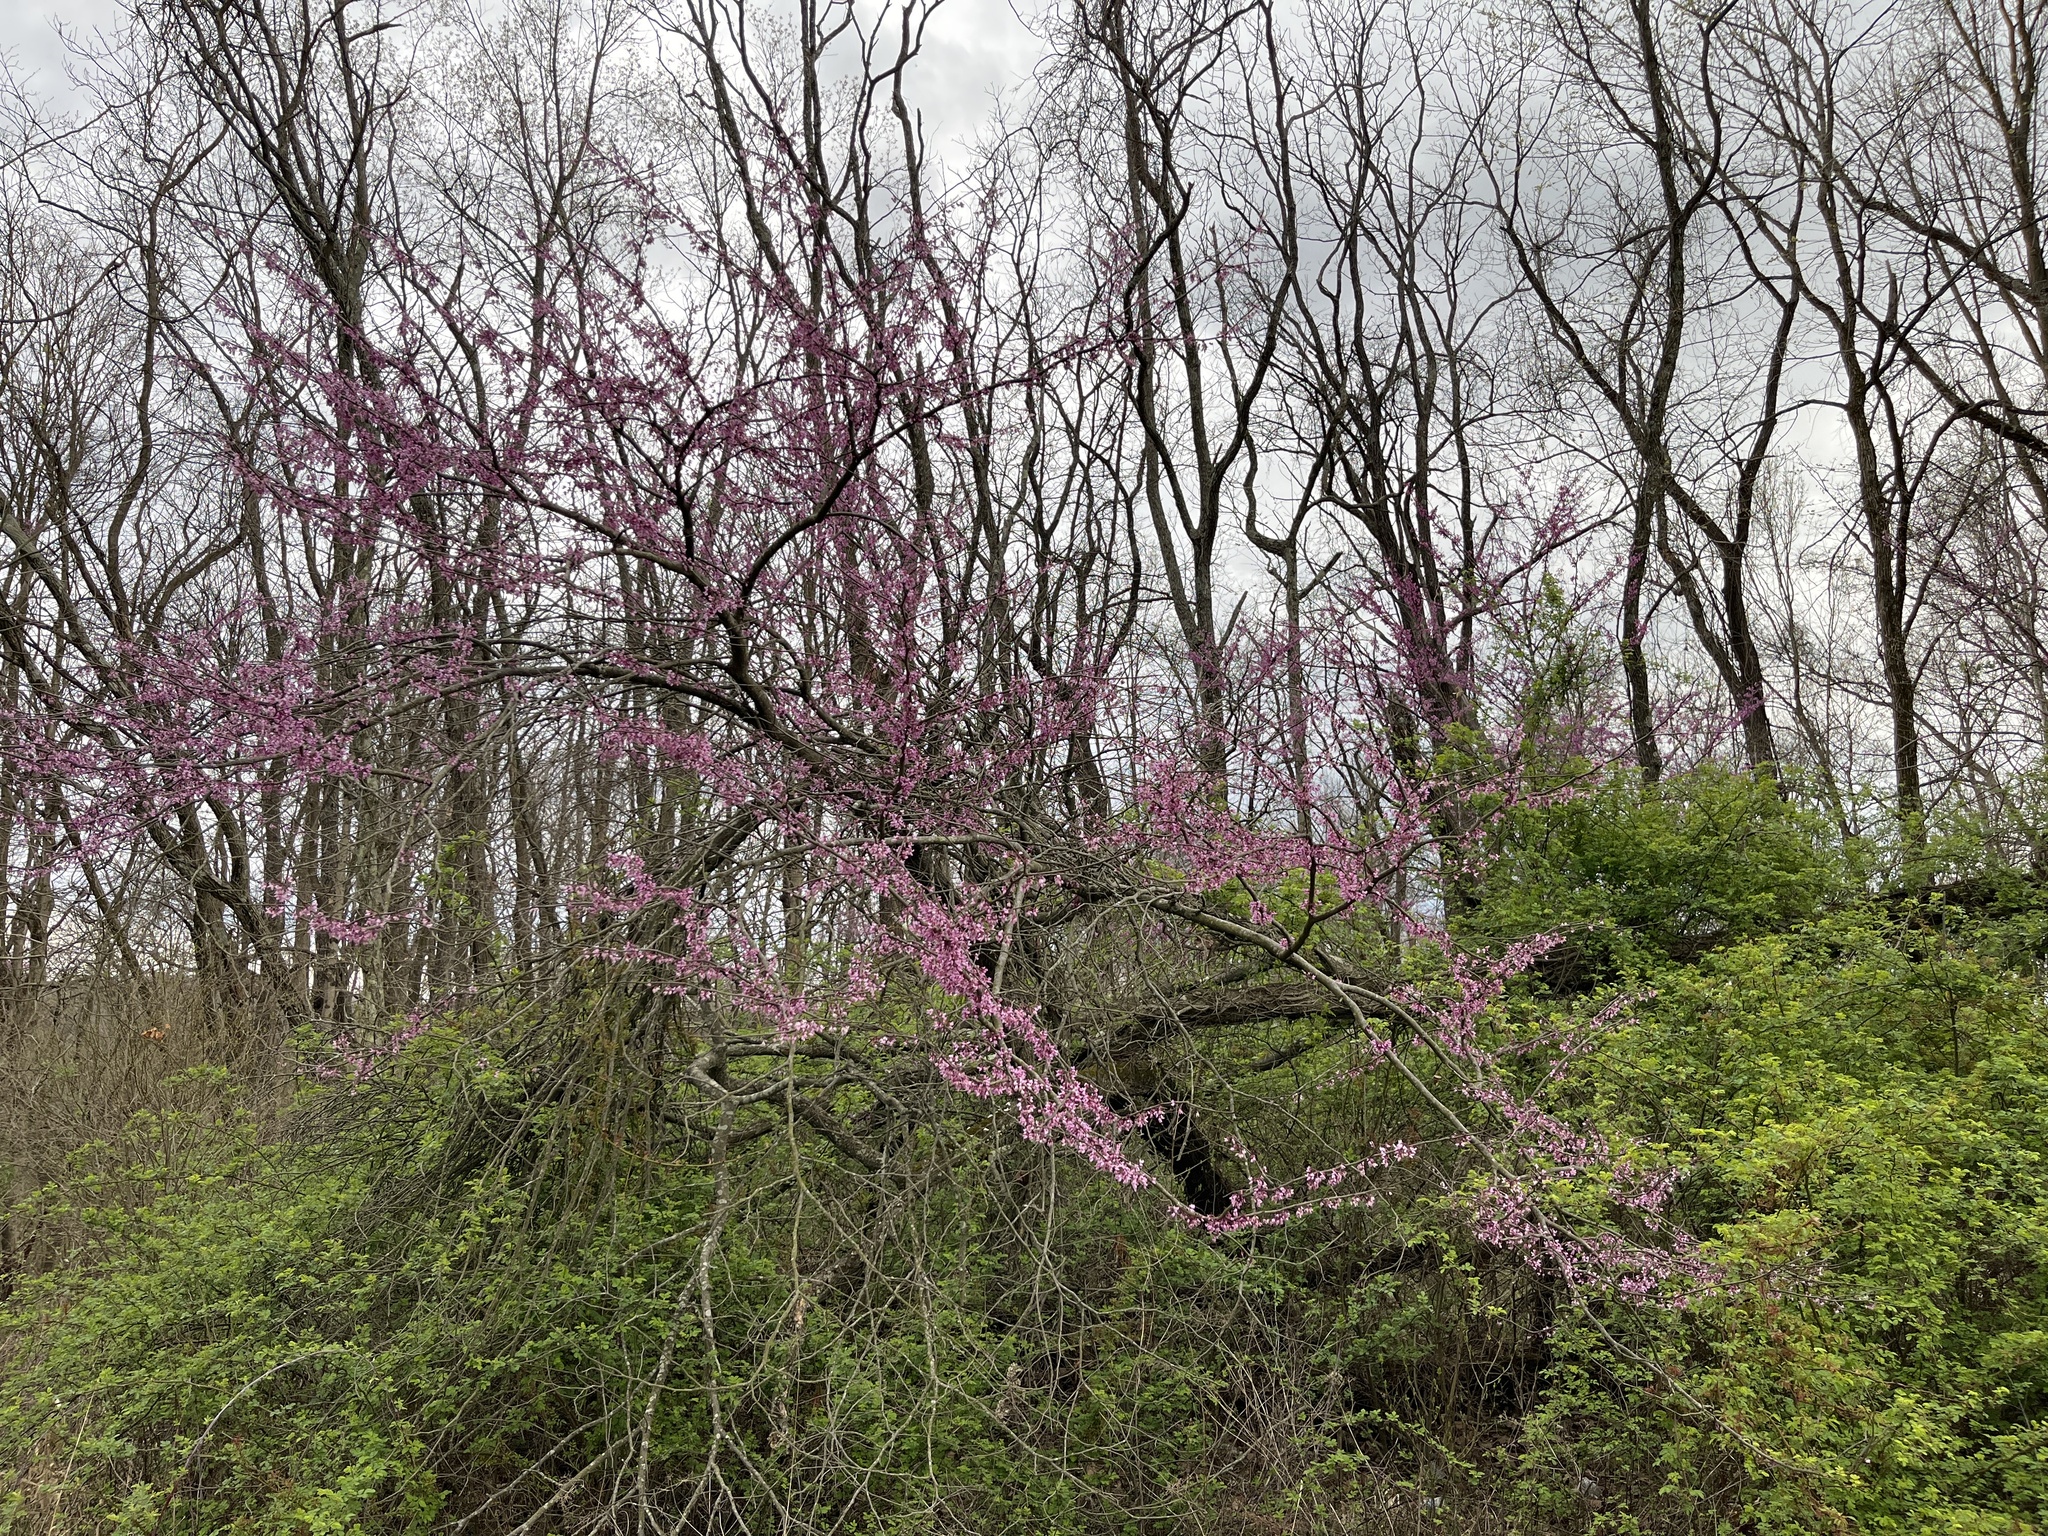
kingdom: Plantae
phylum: Tracheophyta
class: Magnoliopsida
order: Fabales
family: Fabaceae
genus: Cercis
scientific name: Cercis canadensis
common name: Eastern redbud
